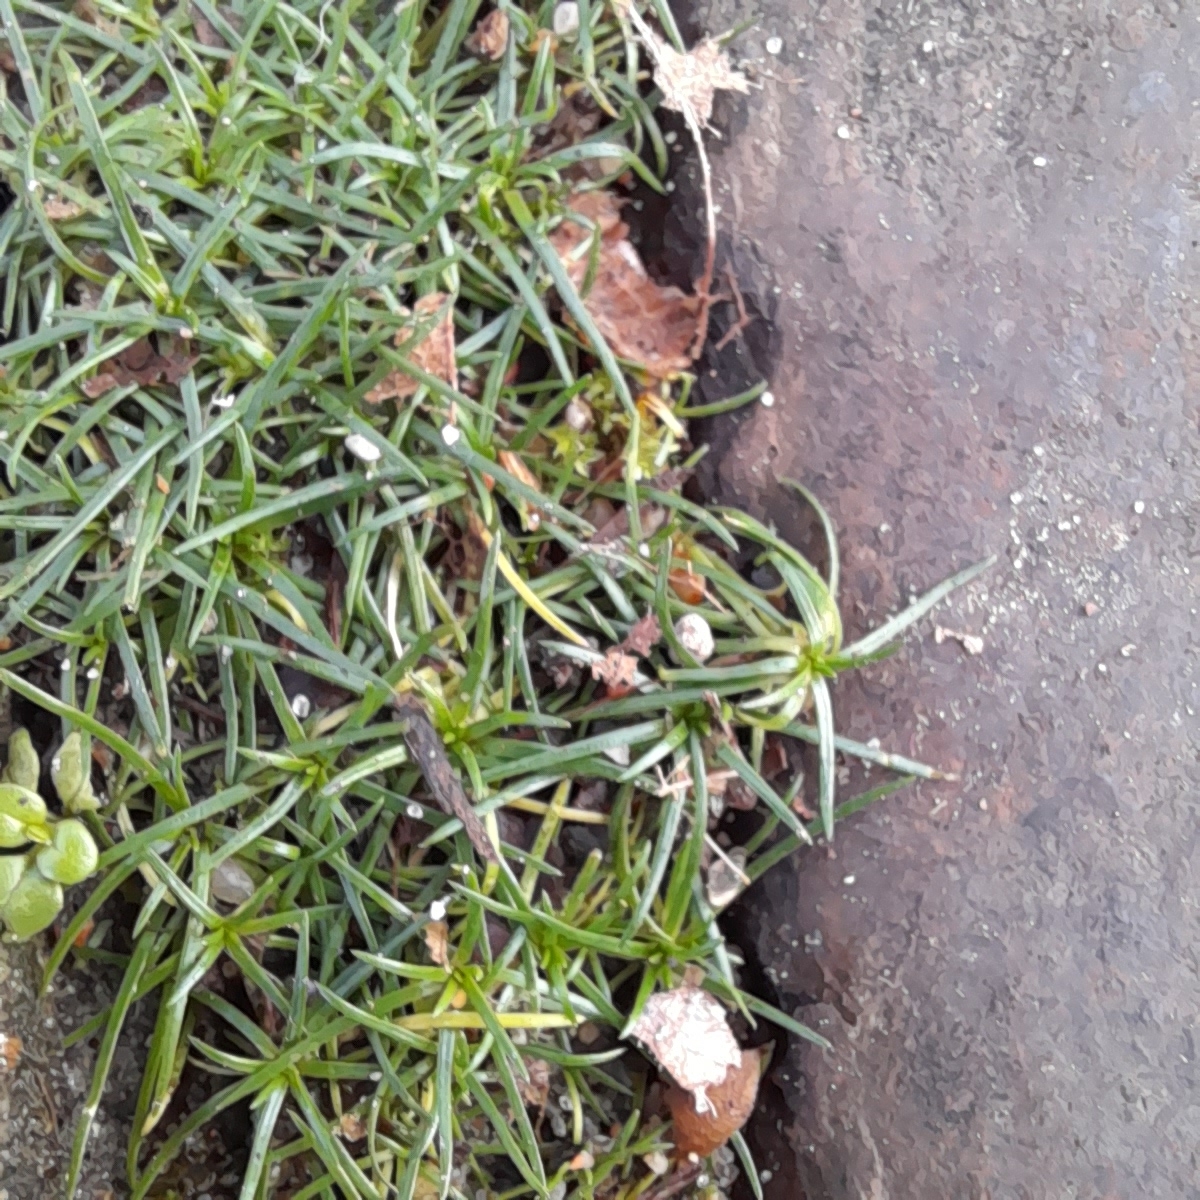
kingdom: Plantae
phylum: Tracheophyta
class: Magnoliopsida
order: Caryophyllales
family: Caryophyllaceae
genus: Sagina
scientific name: Sagina procumbens
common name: Procumbent pearlwort
